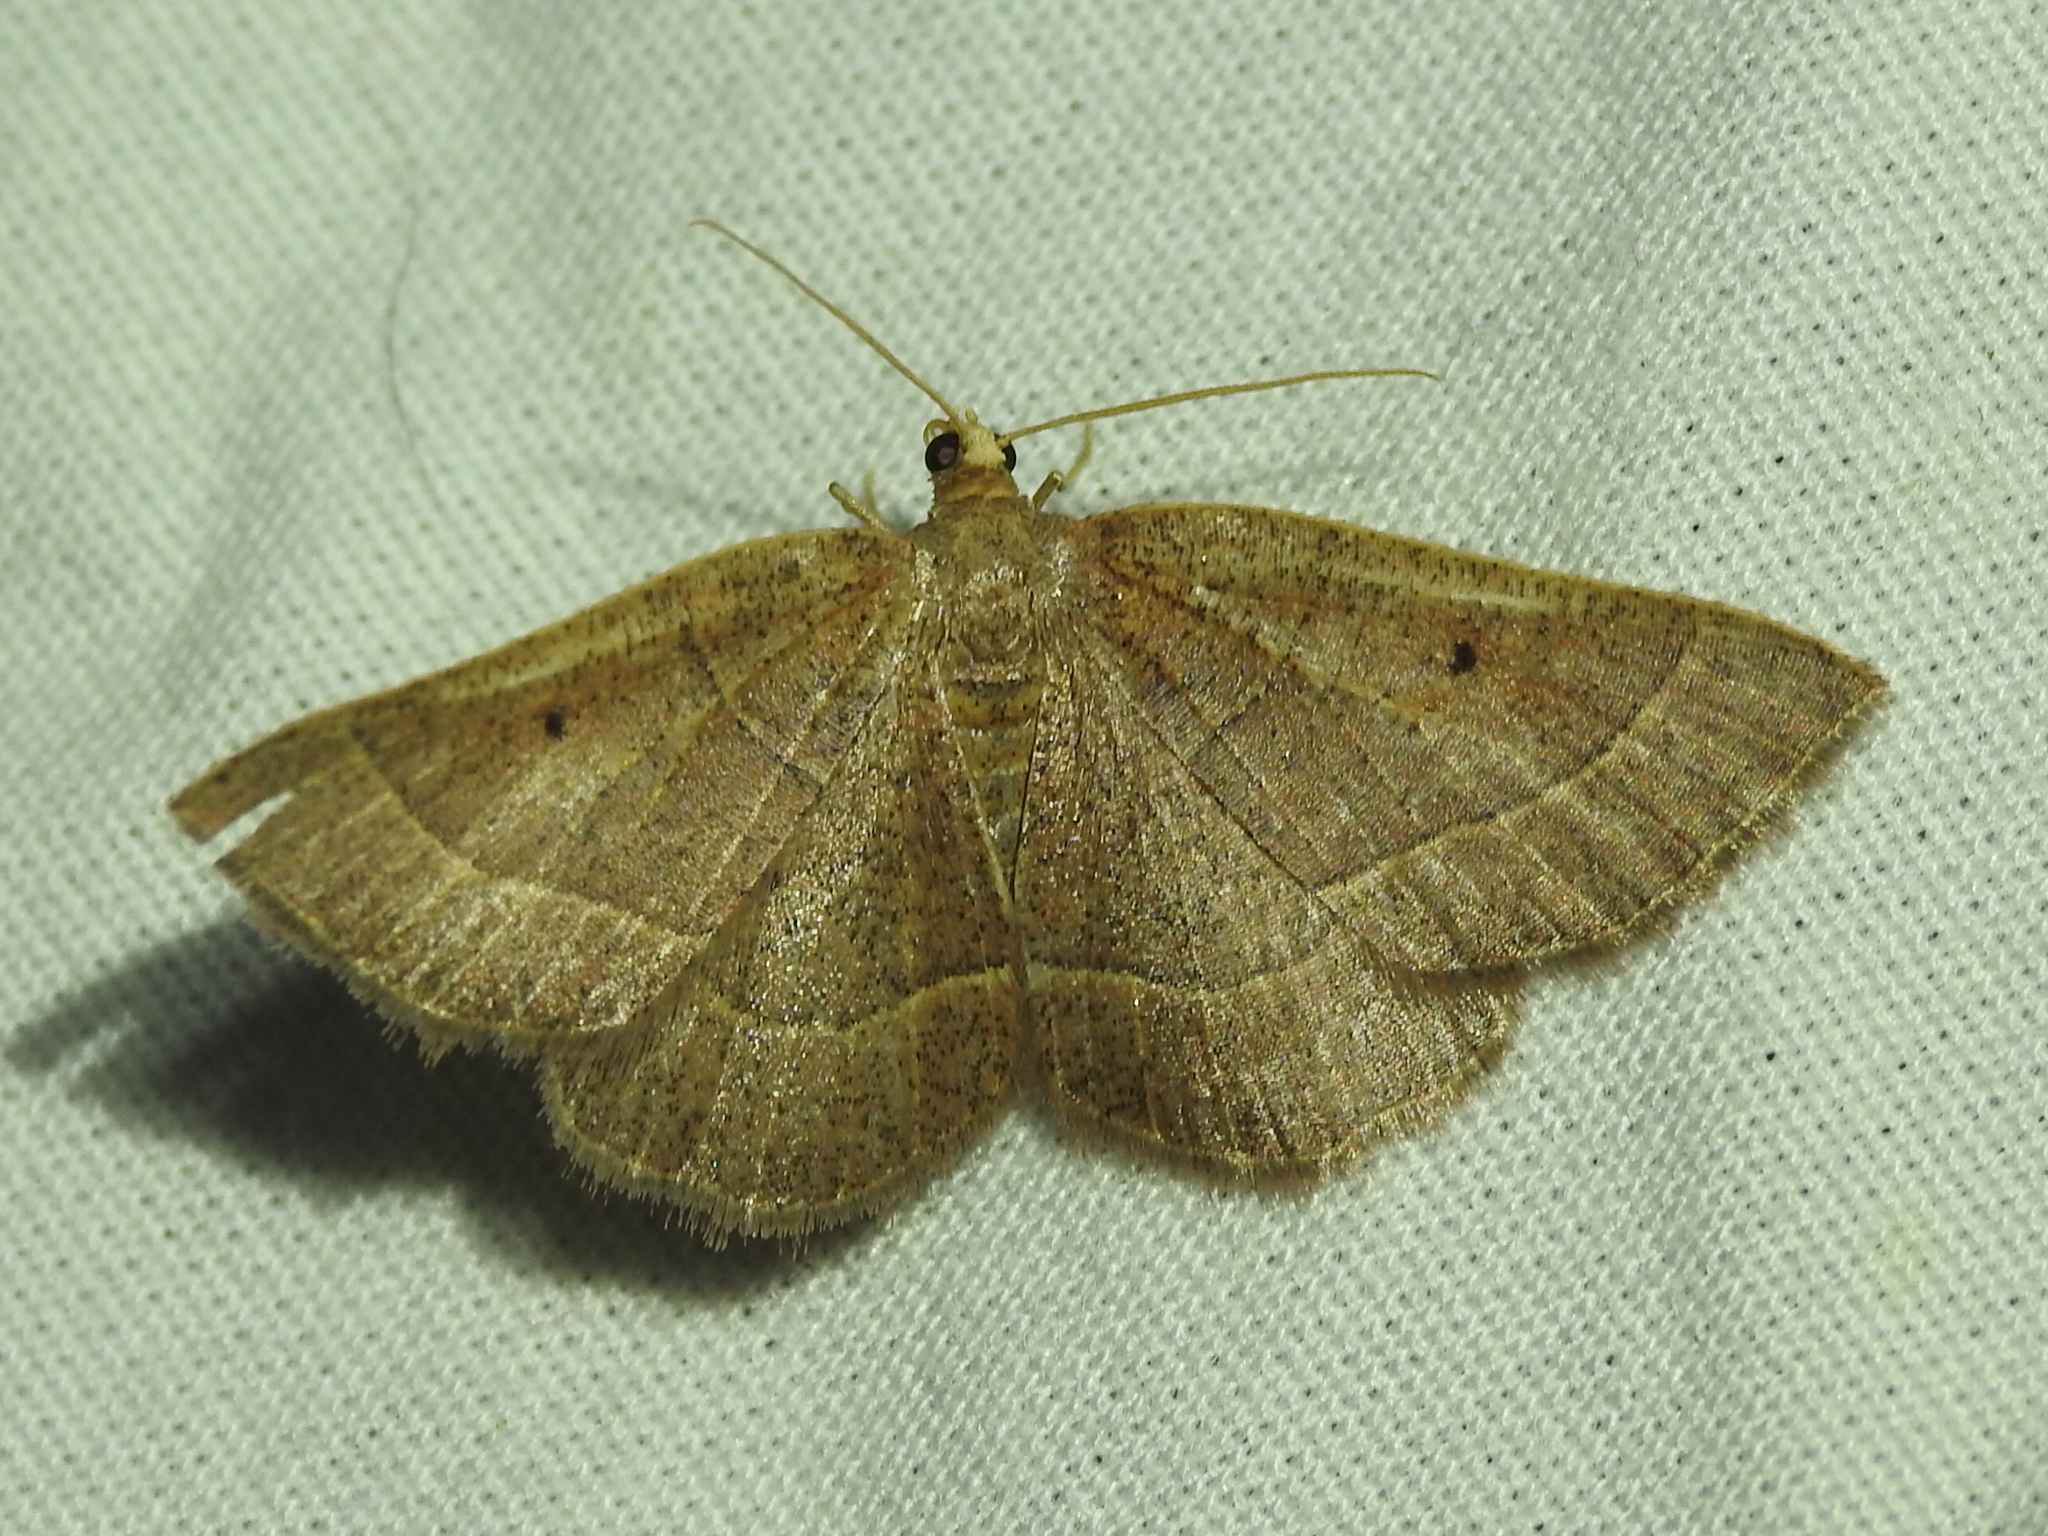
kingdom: Animalia
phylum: Arthropoda
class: Insecta
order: Lepidoptera
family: Geometridae
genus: Episemasia
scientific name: Episemasia cervinaria
